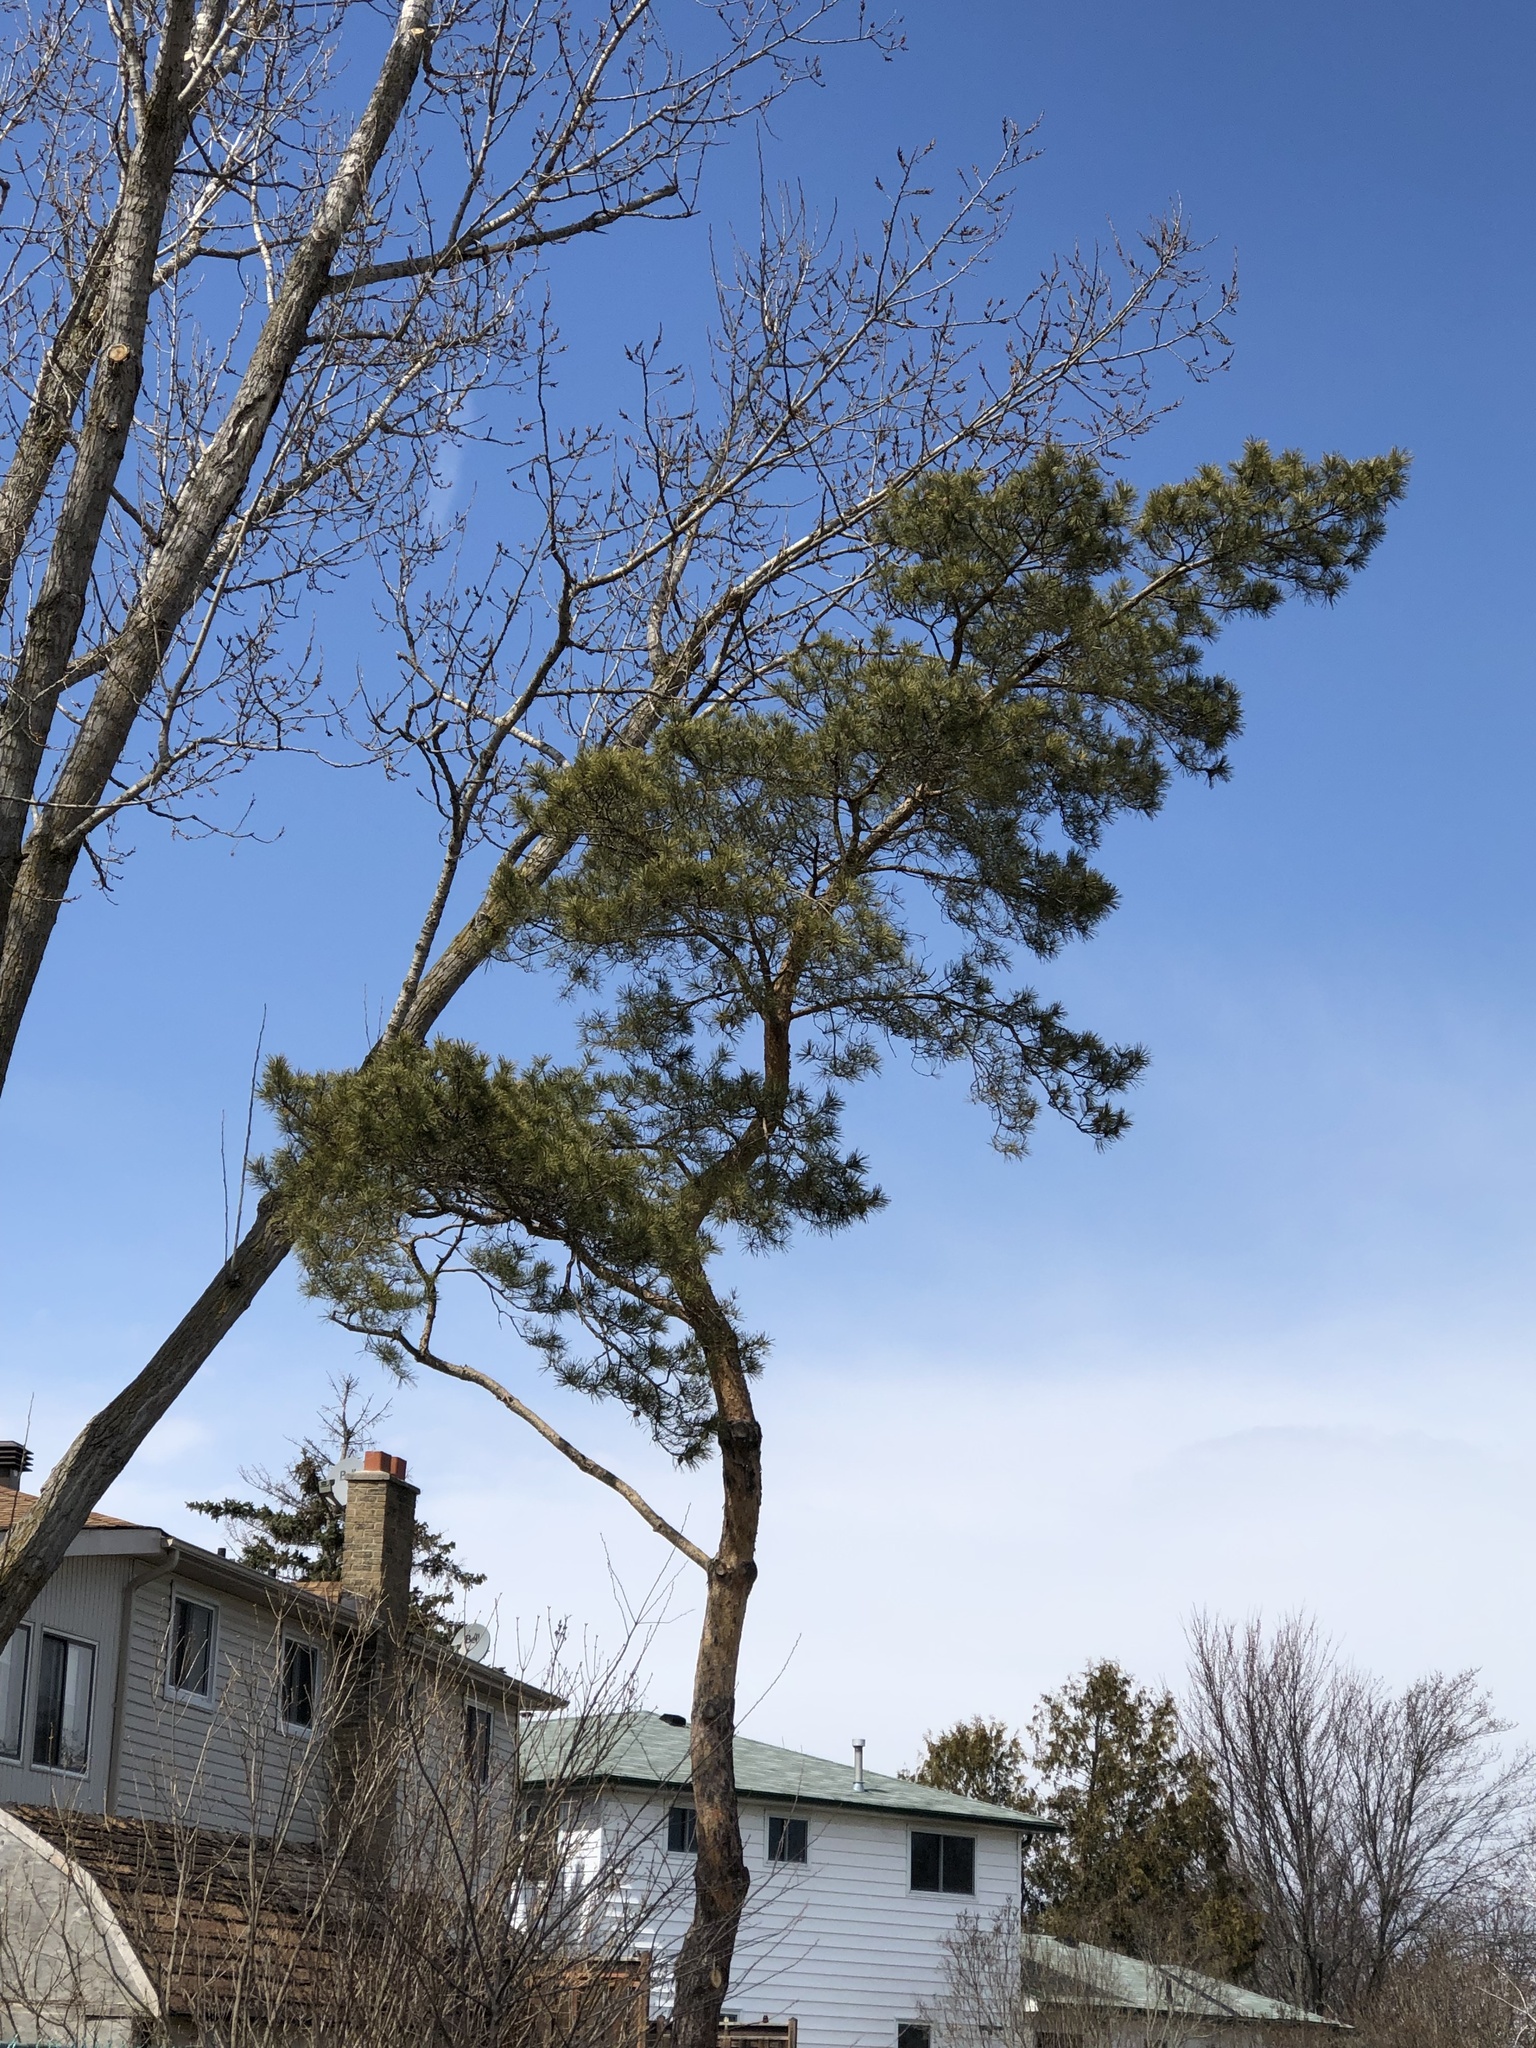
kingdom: Plantae
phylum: Tracheophyta
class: Pinopsida
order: Pinales
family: Pinaceae
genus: Pinus
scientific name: Pinus sylvestris
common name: Scots pine
